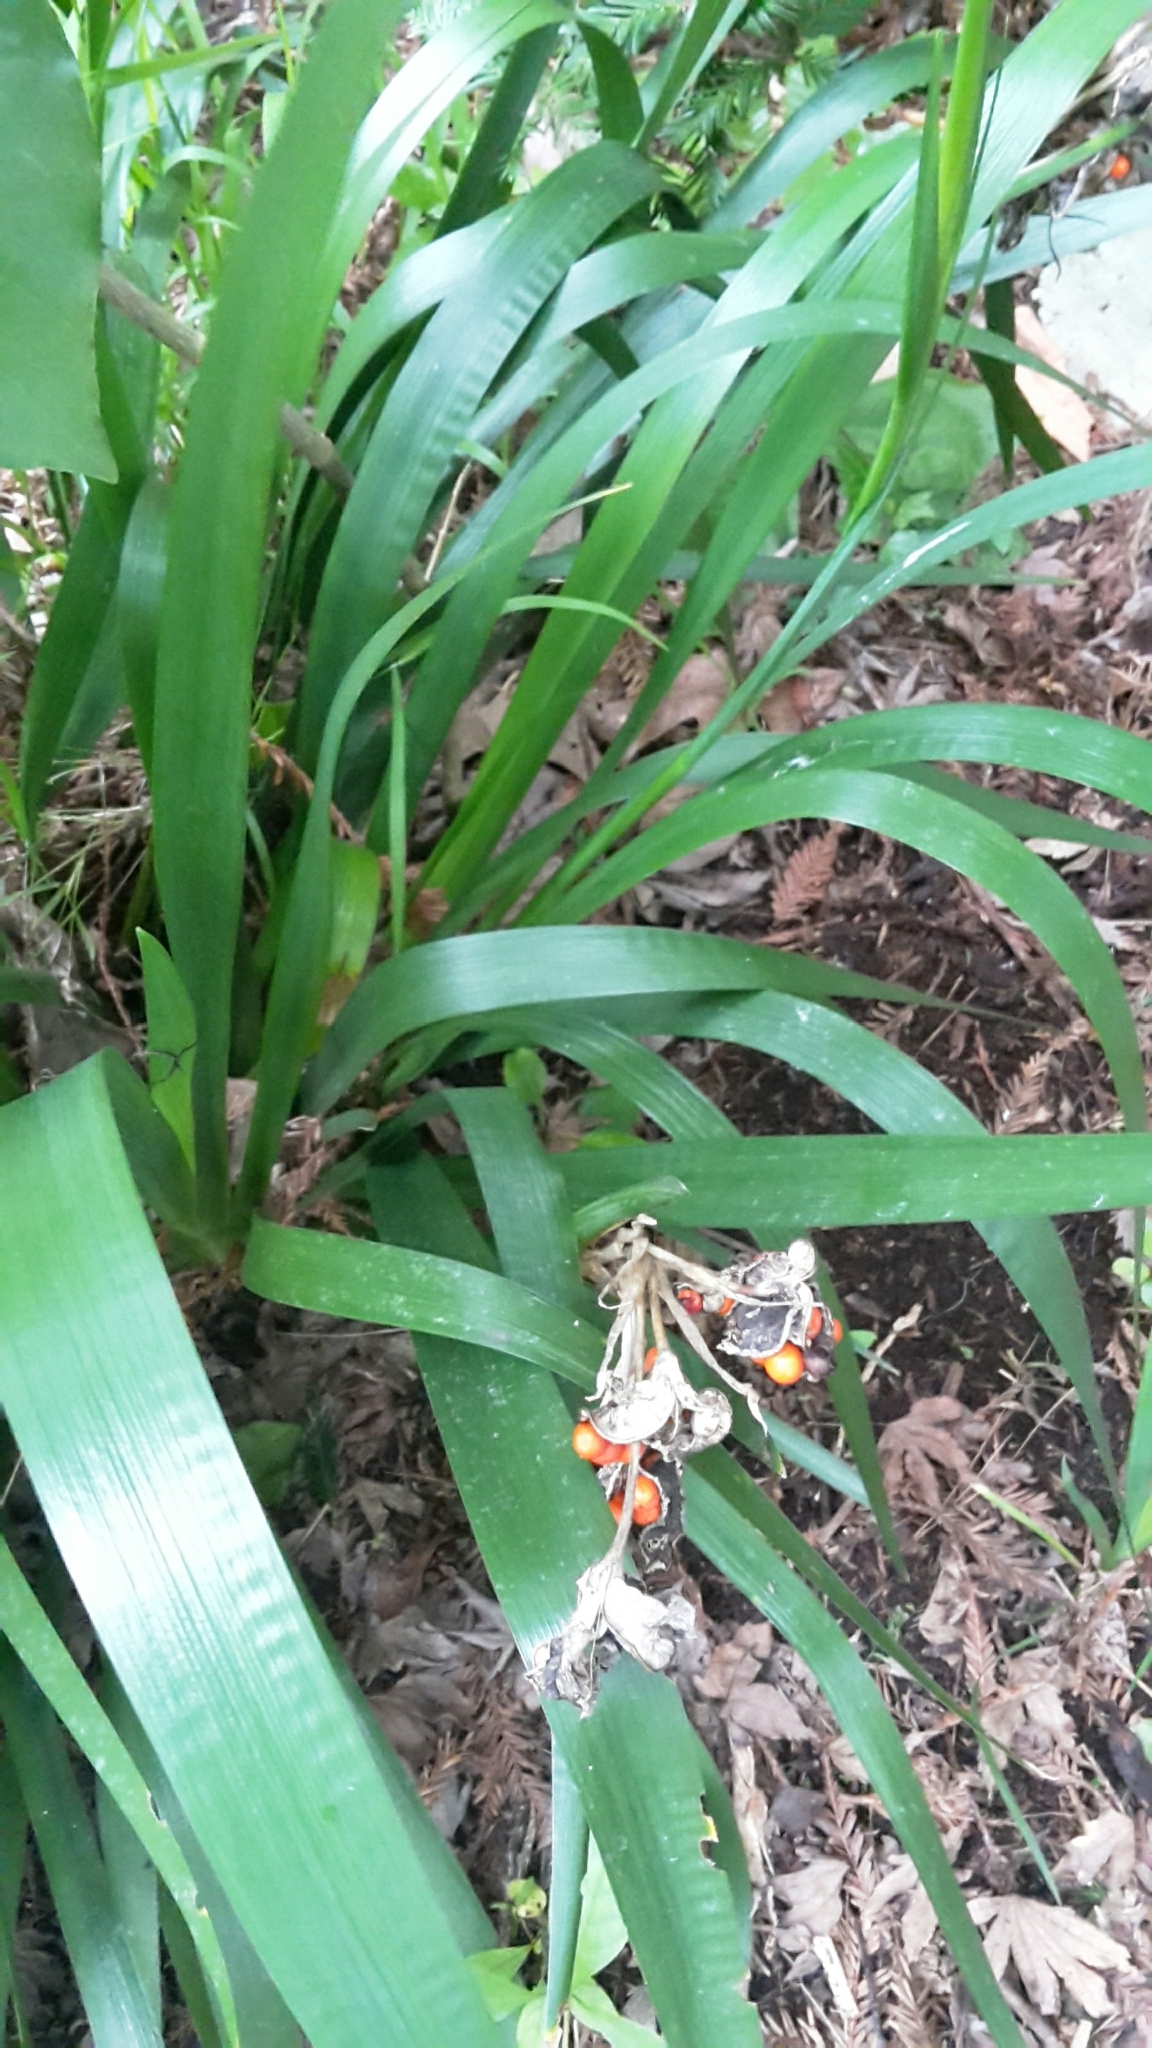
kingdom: Plantae
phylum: Tracheophyta
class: Liliopsida
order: Asparagales
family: Iridaceae
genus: Iris
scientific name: Iris foetidissima
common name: Stinking iris
